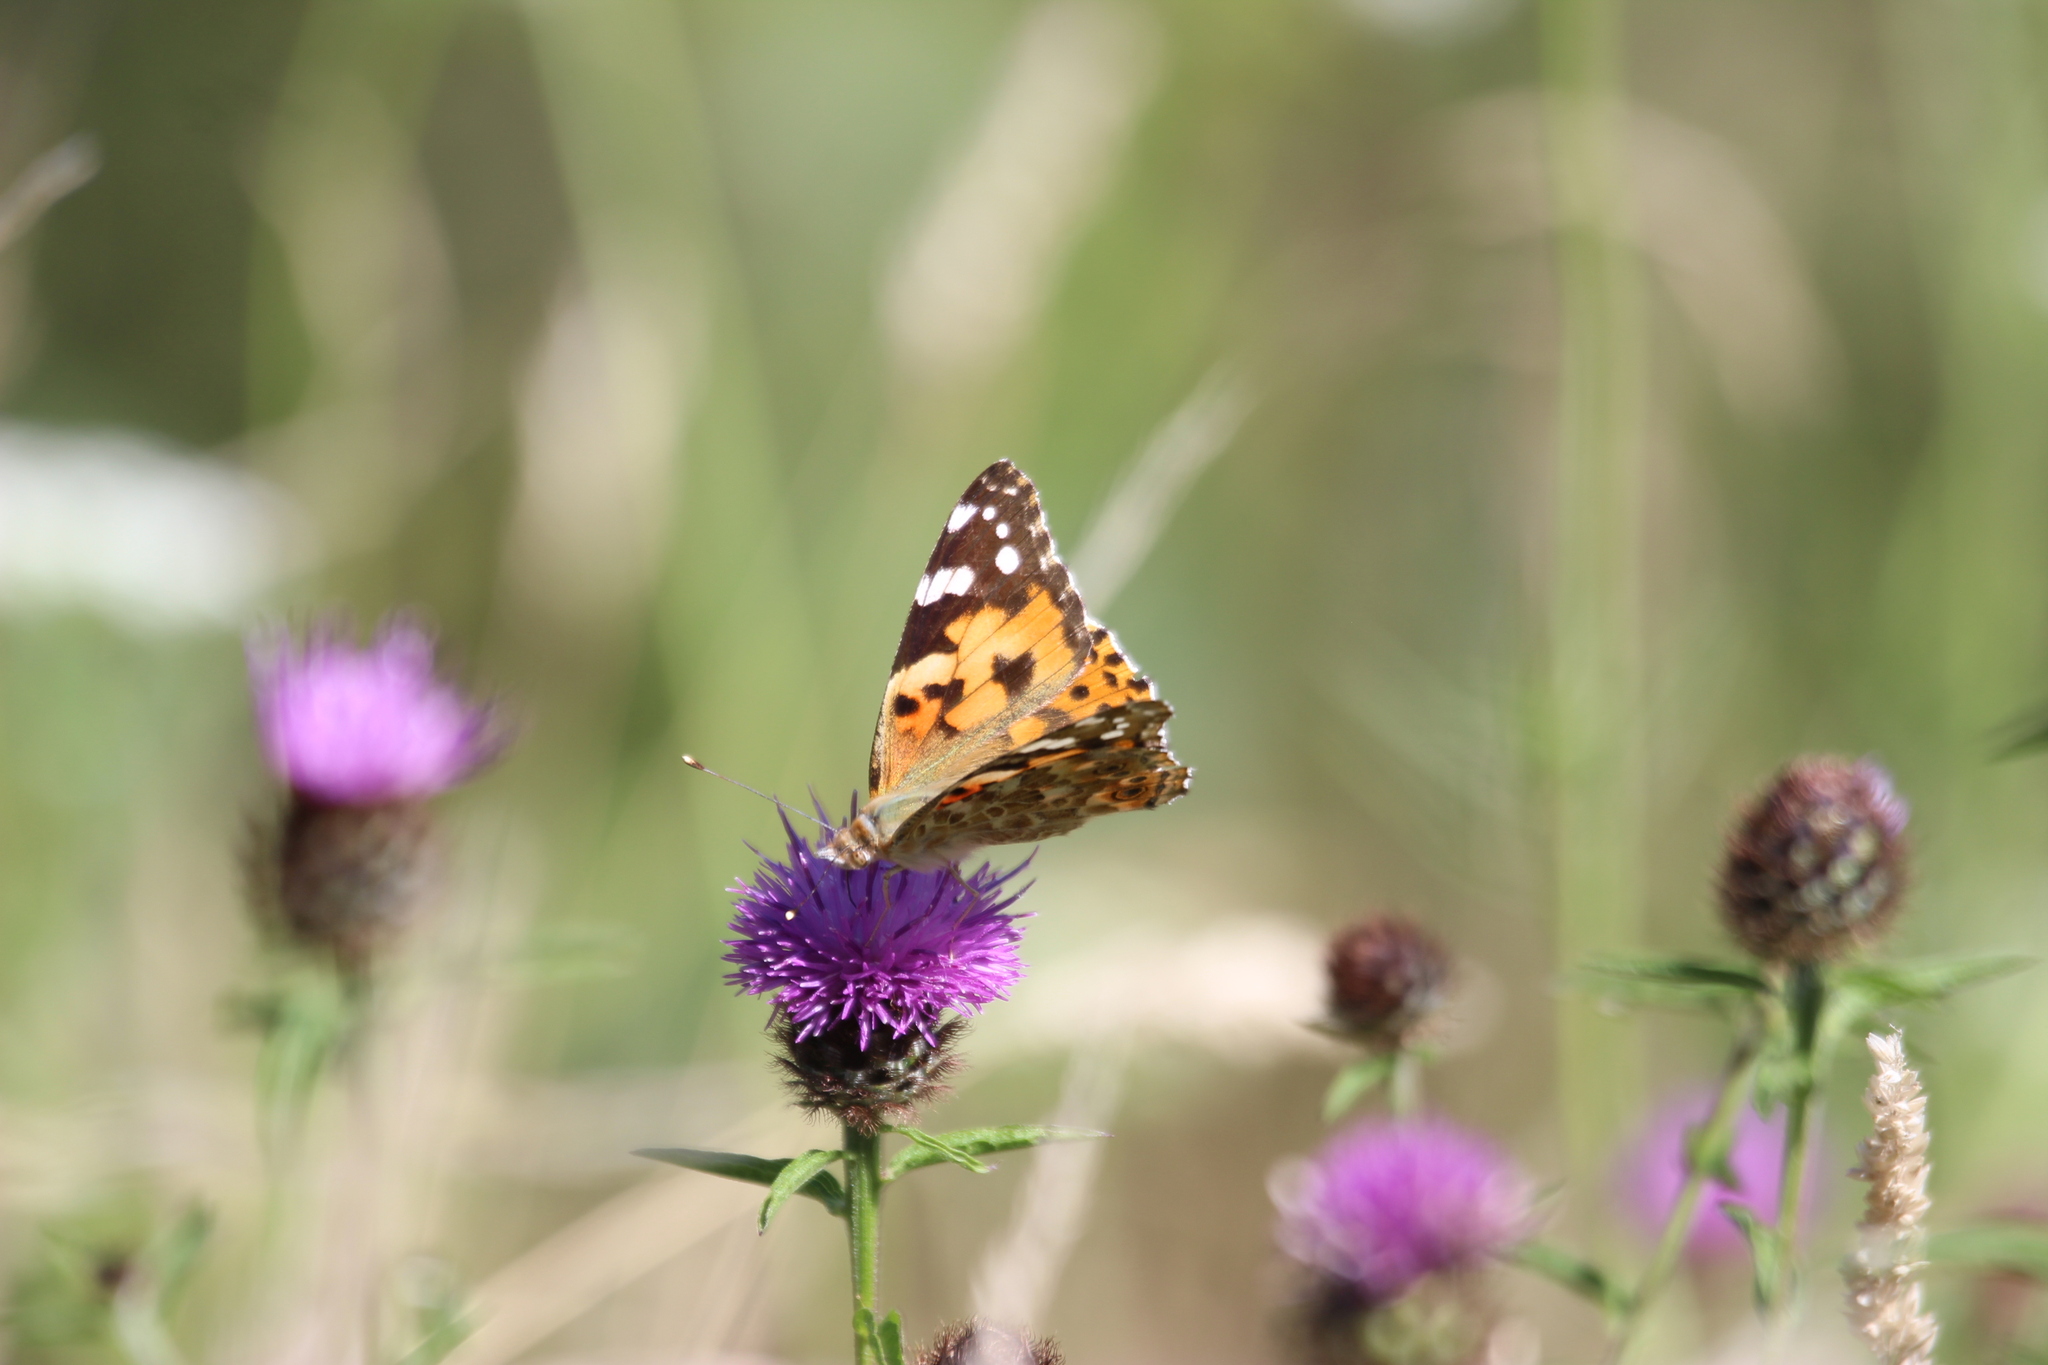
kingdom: Animalia
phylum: Arthropoda
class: Insecta
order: Lepidoptera
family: Nymphalidae
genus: Vanessa
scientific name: Vanessa cardui
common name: Painted lady
